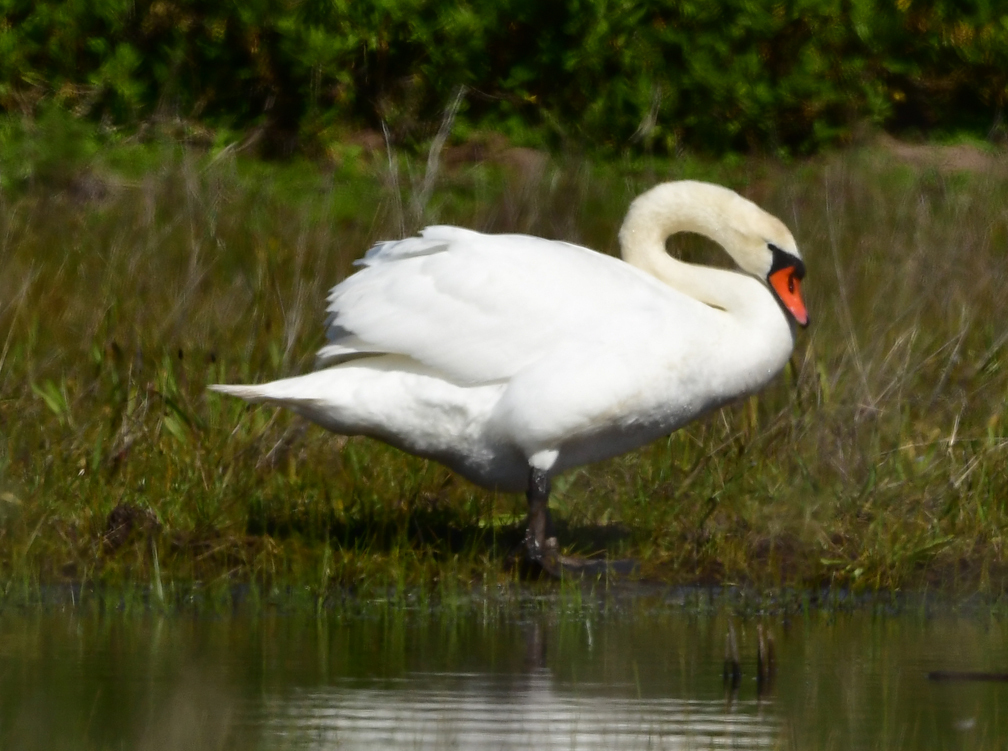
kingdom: Animalia
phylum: Chordata
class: Aves
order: Anseriformes
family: Anatidae
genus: Cygnus
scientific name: Cygnus olor
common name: Mute swan
